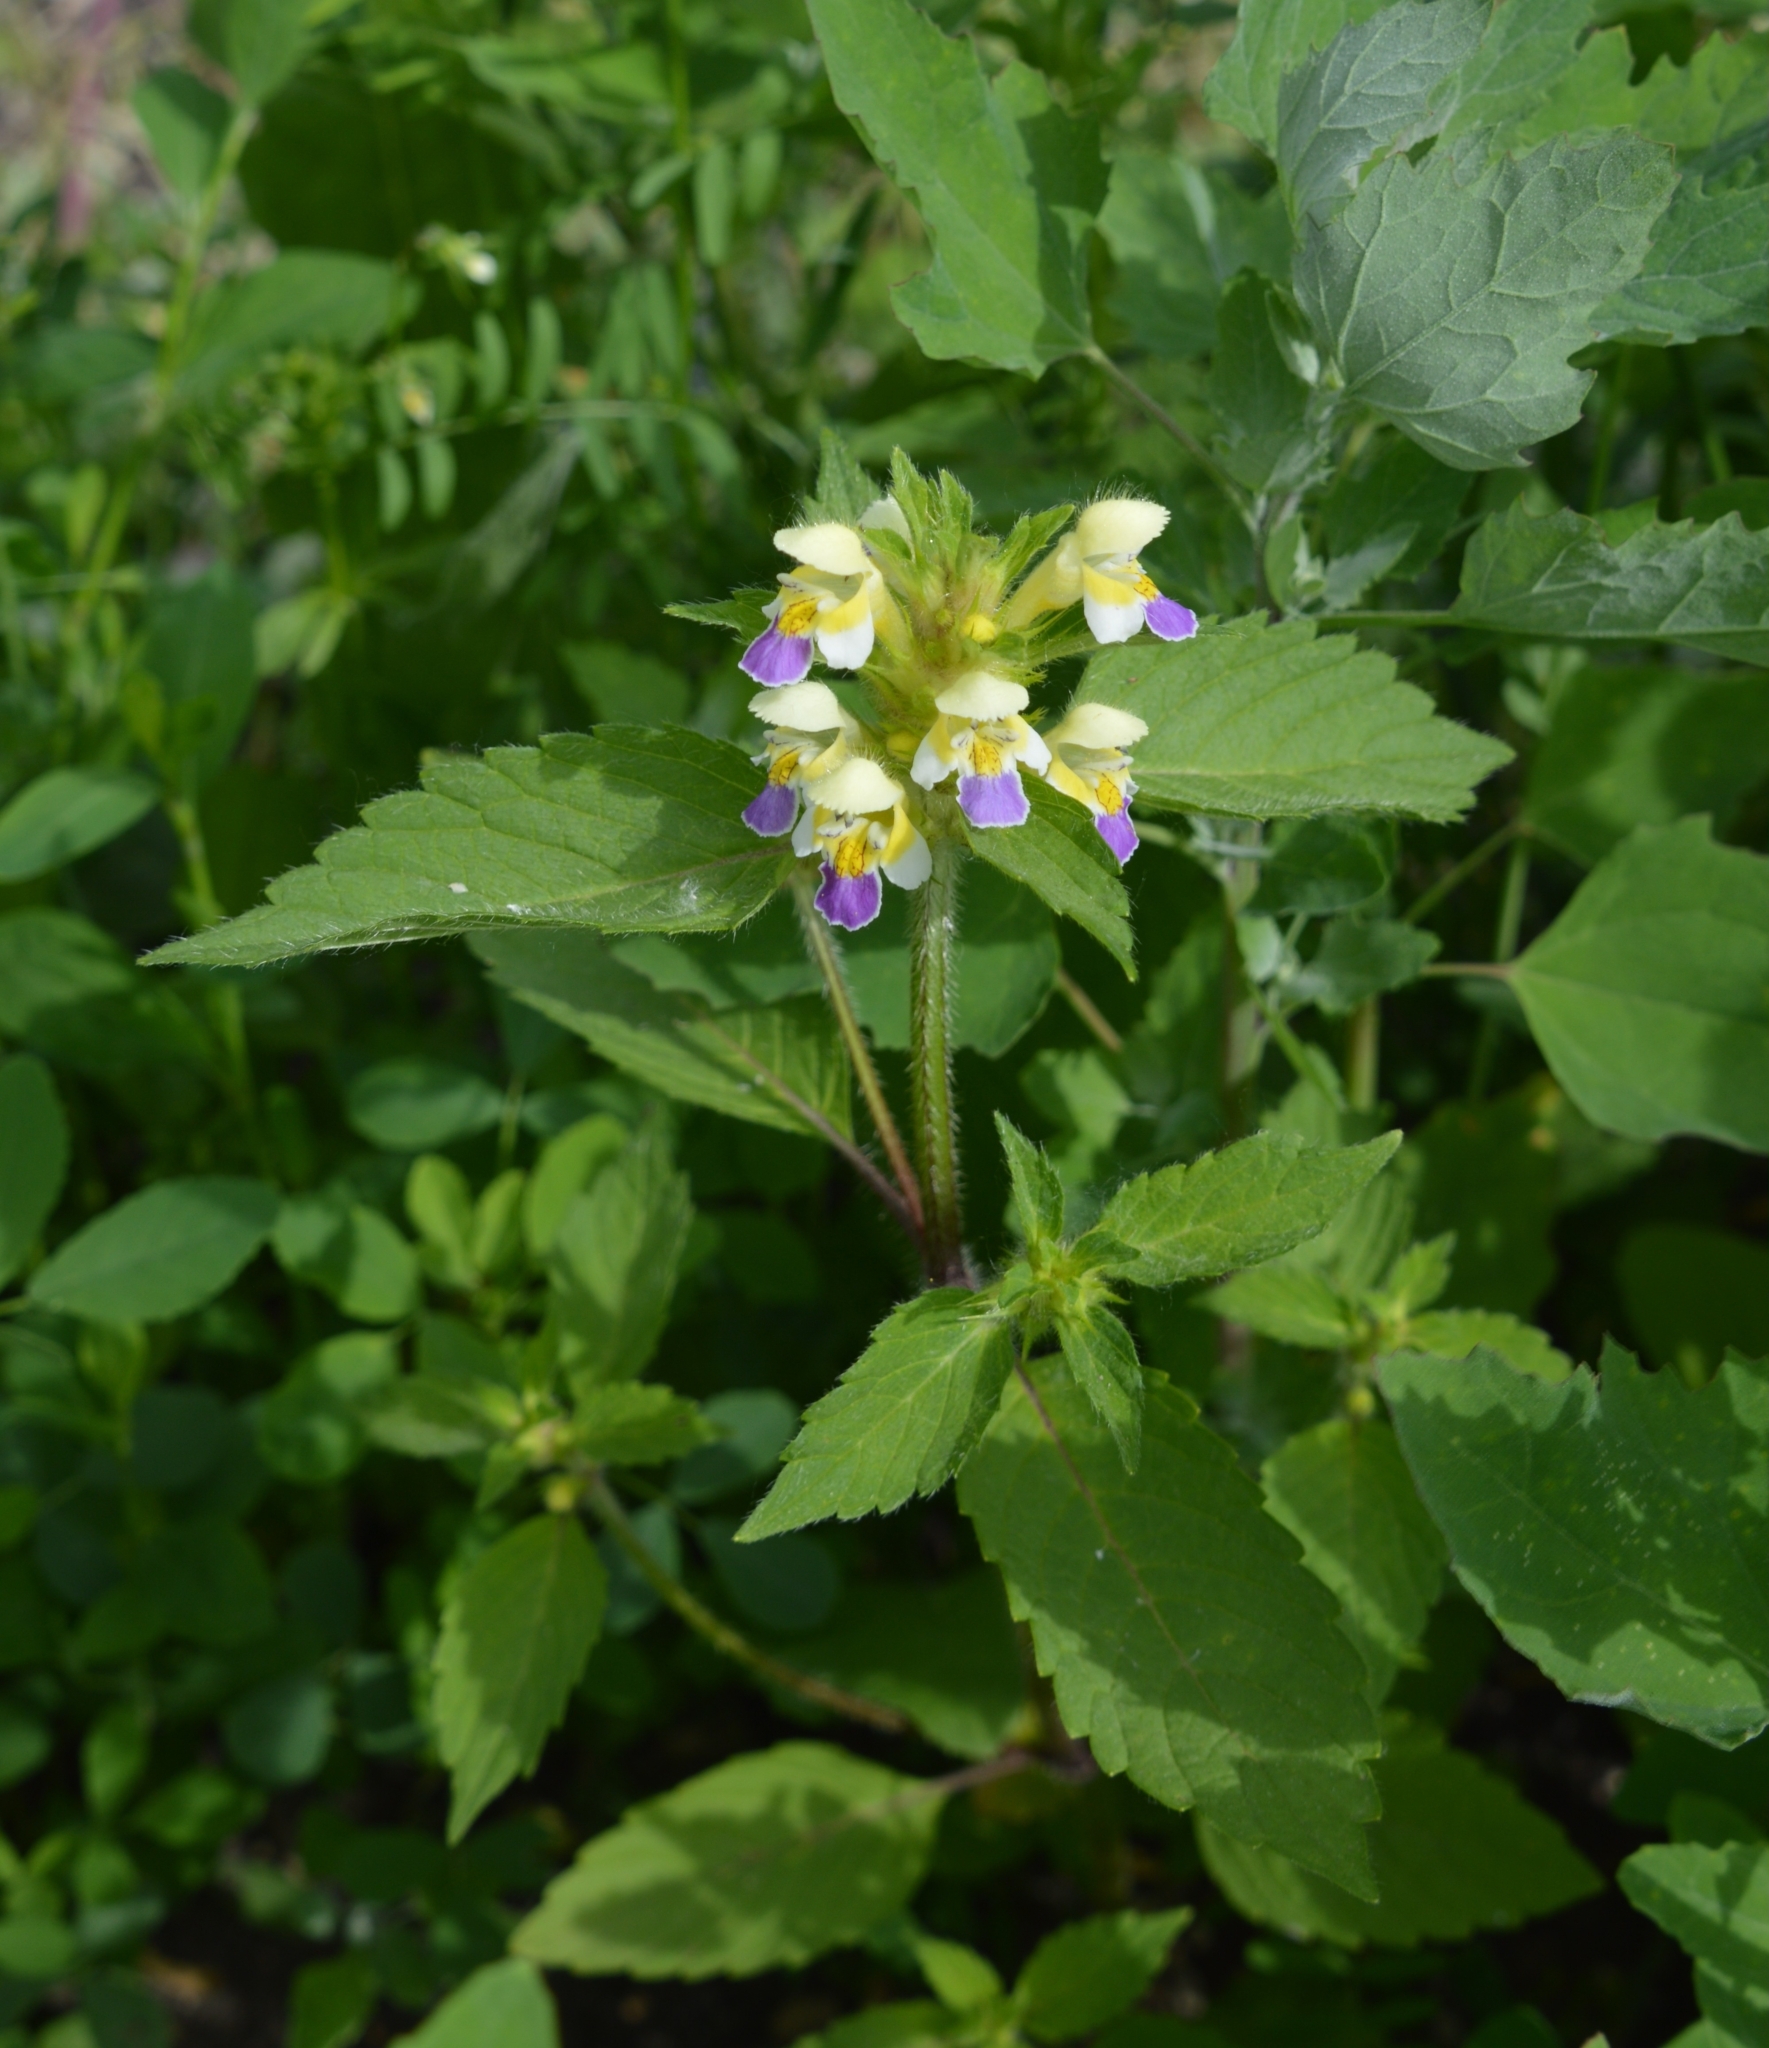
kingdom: Plantae
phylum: Tracheophyta
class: Magnoliopsida
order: Lamiales
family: Lamiaceae
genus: Galeopsis
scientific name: Galeopsis speciosa
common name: Large-flowered hemp-nettle
